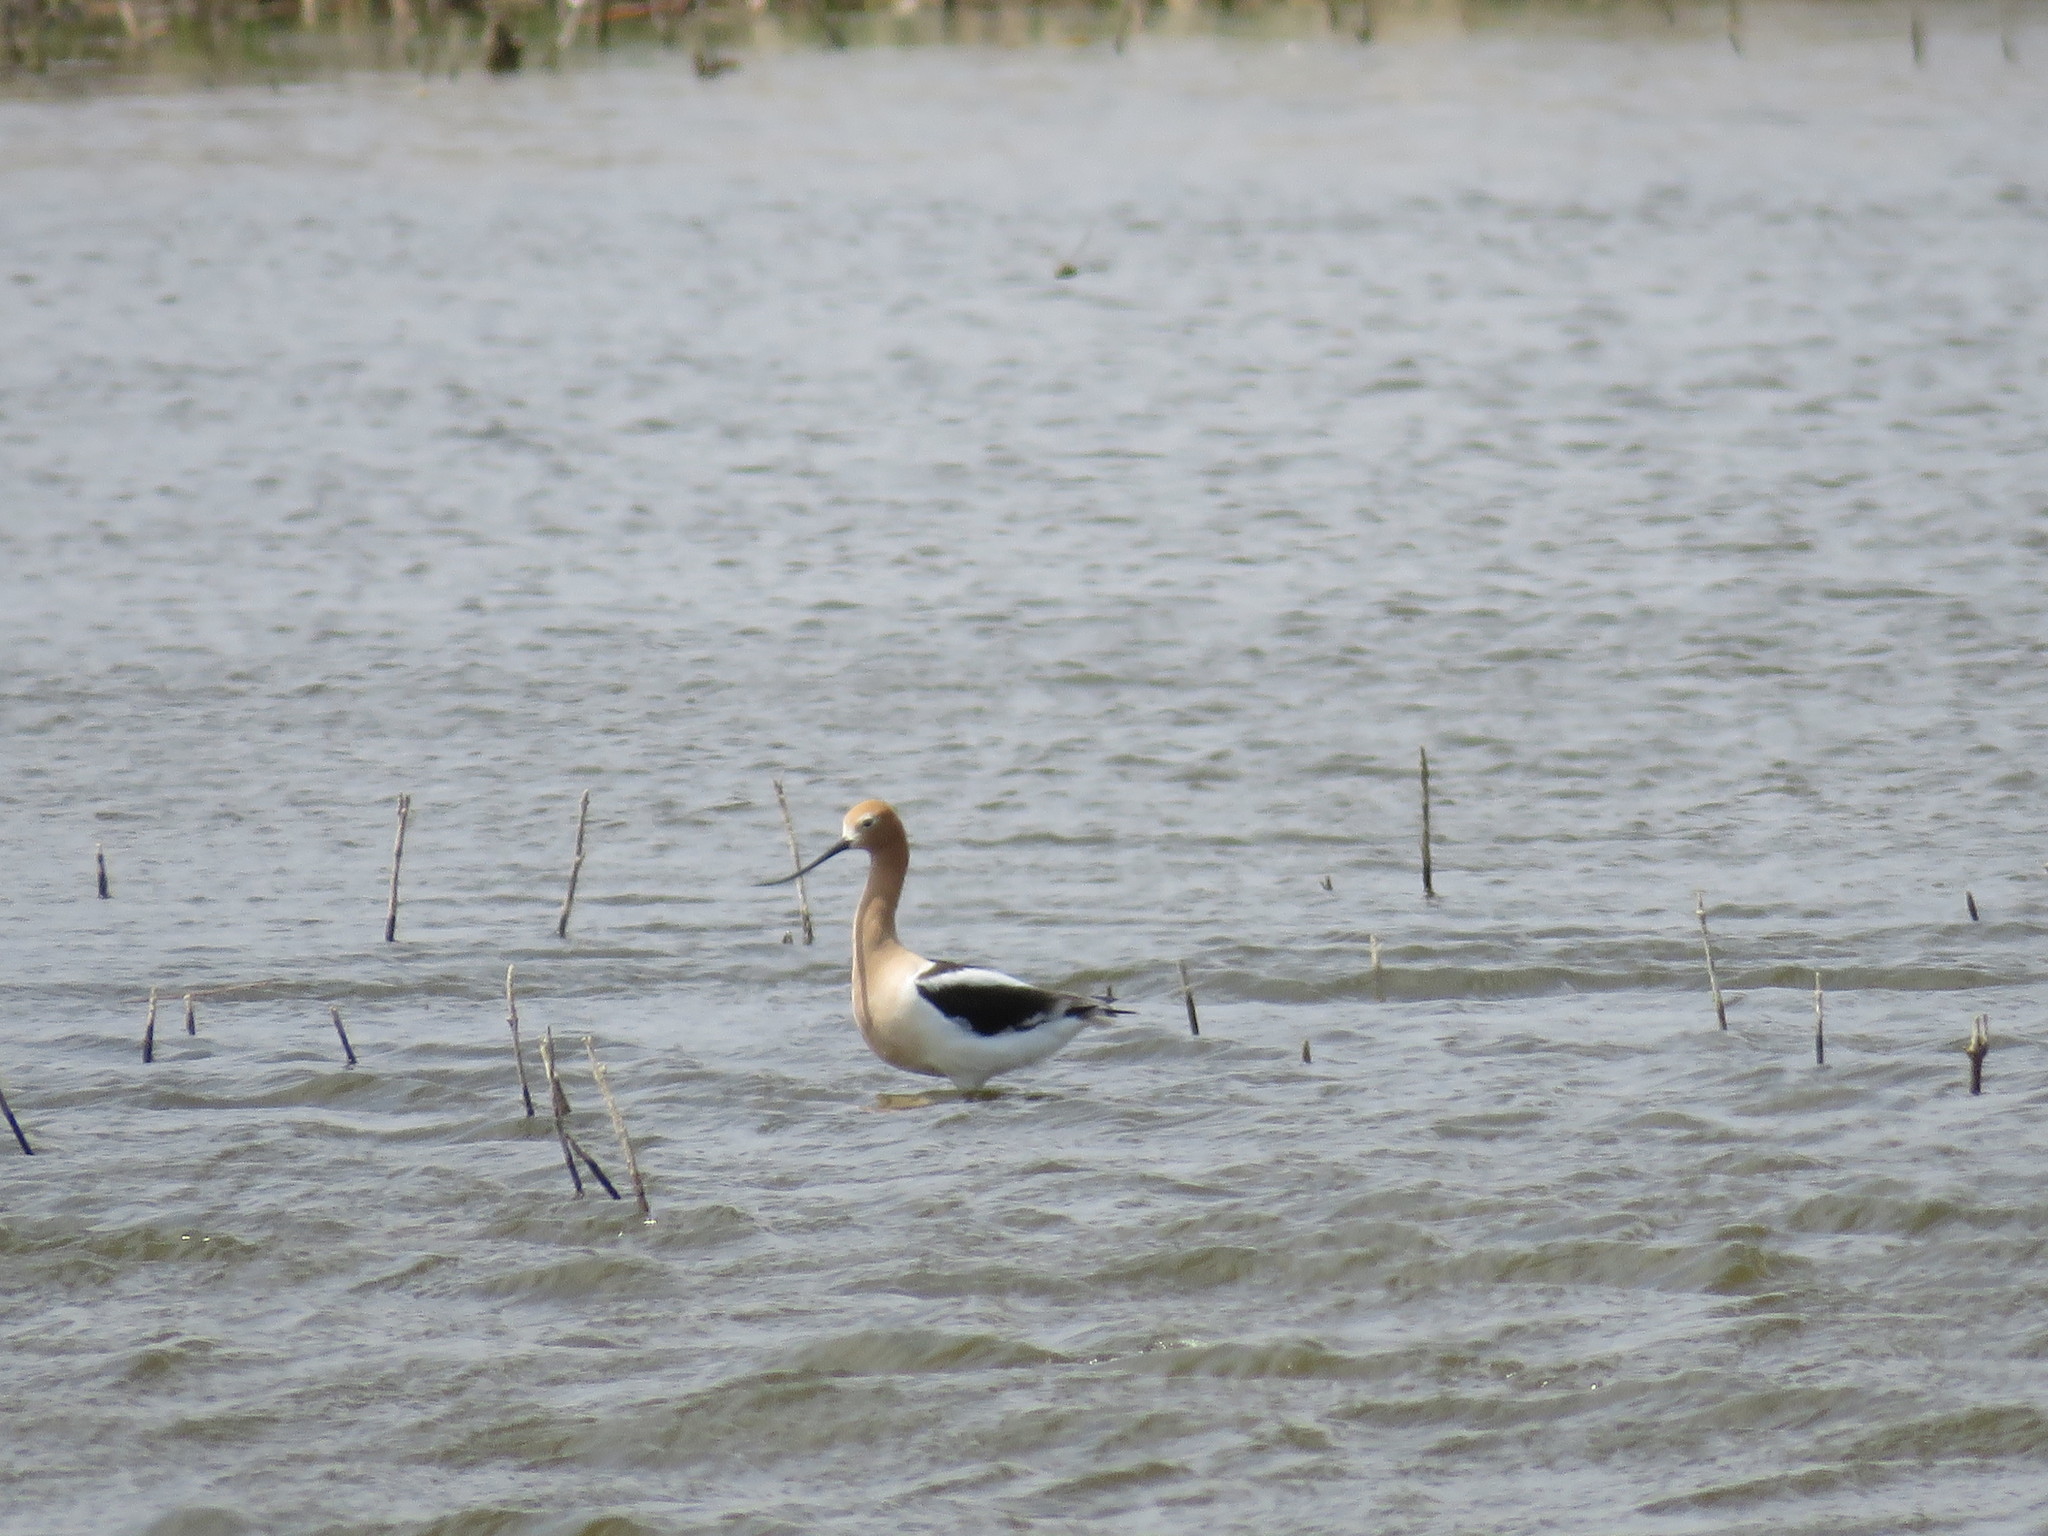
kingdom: Animalia
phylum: Chordata
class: Aves
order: Charadriiformes
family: Recurvirostridae
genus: Recurvirostra
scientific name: Recurvirostra americana
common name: American avocet
